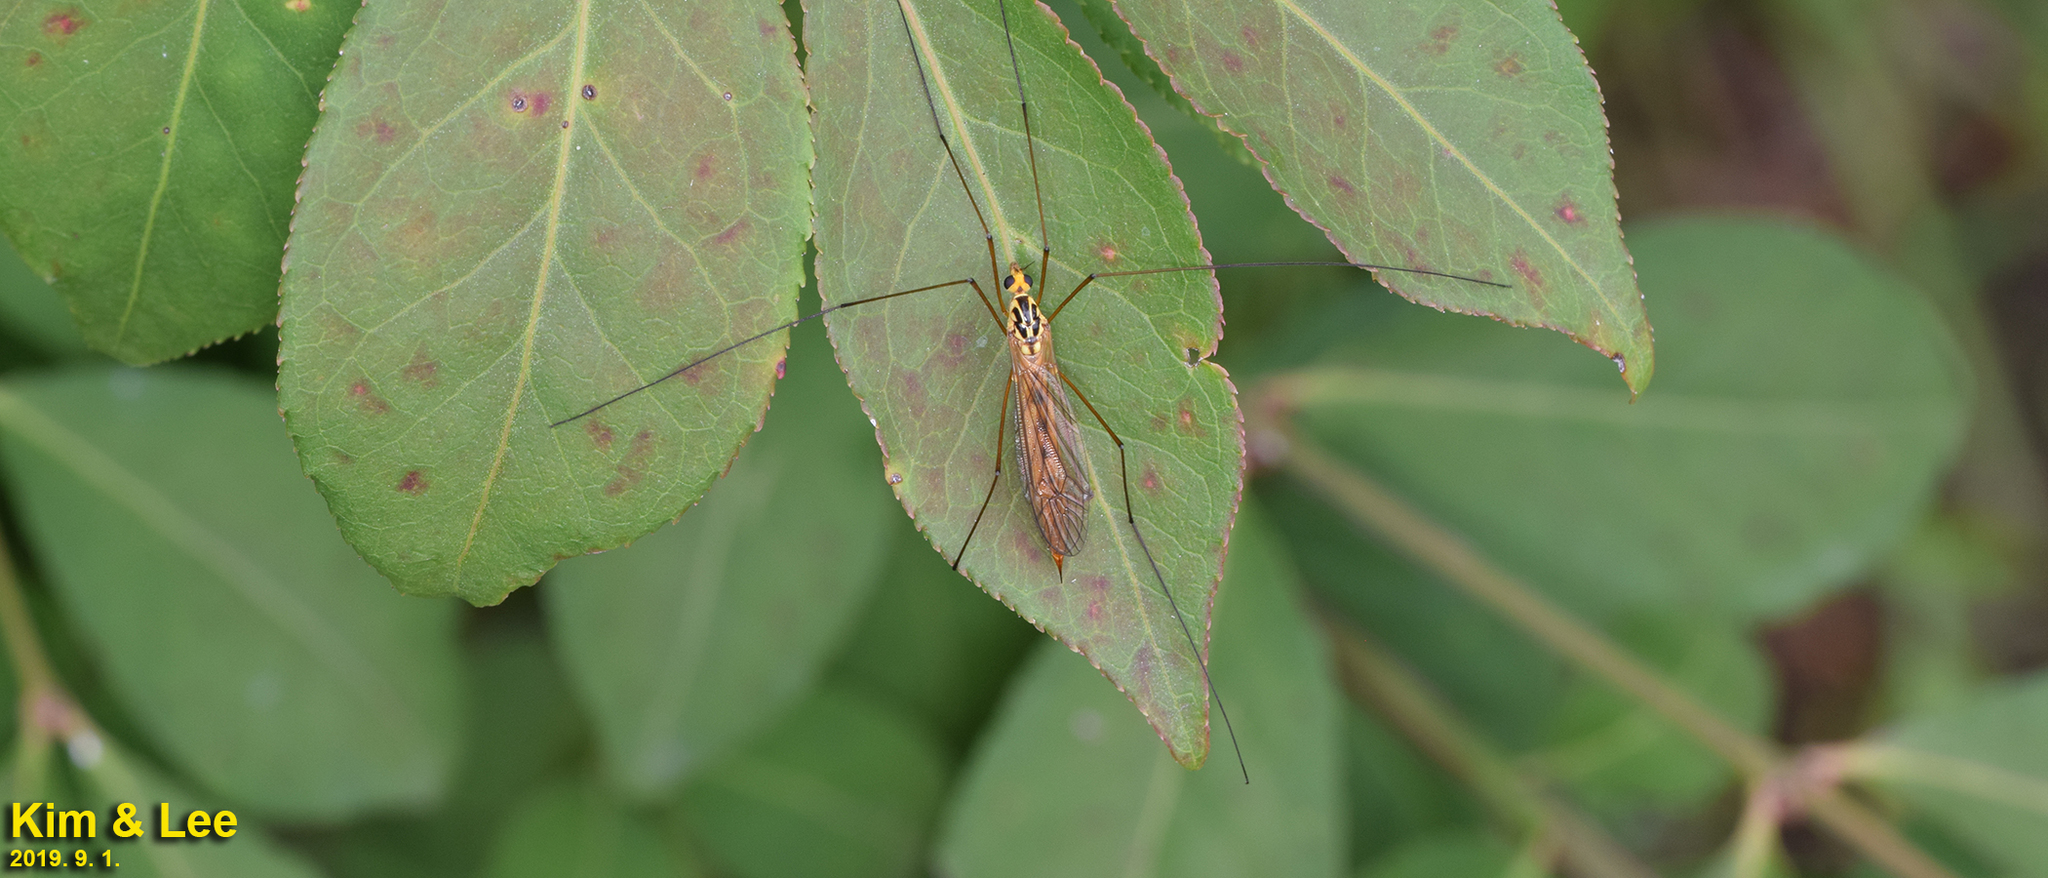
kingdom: Animalia
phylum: Arthropoda
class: Insecta
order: Diptera
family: Tipulidae
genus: Nephrotoma
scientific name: Nephrotoma virgata
